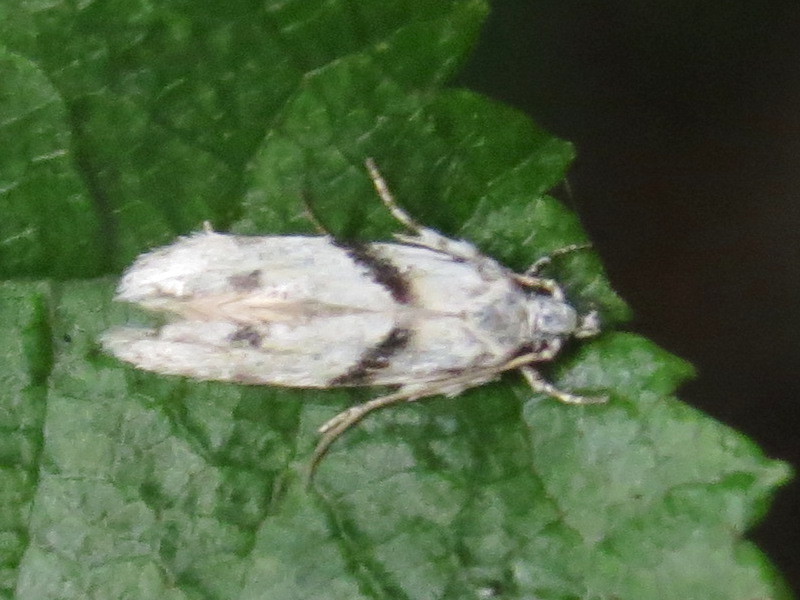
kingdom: Animalia
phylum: Arthropoda
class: Insecta
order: Lepidoptera
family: Gelechiidae
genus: Arogalea
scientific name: Arogalea cristifasciella
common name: White stripe-backed moth
